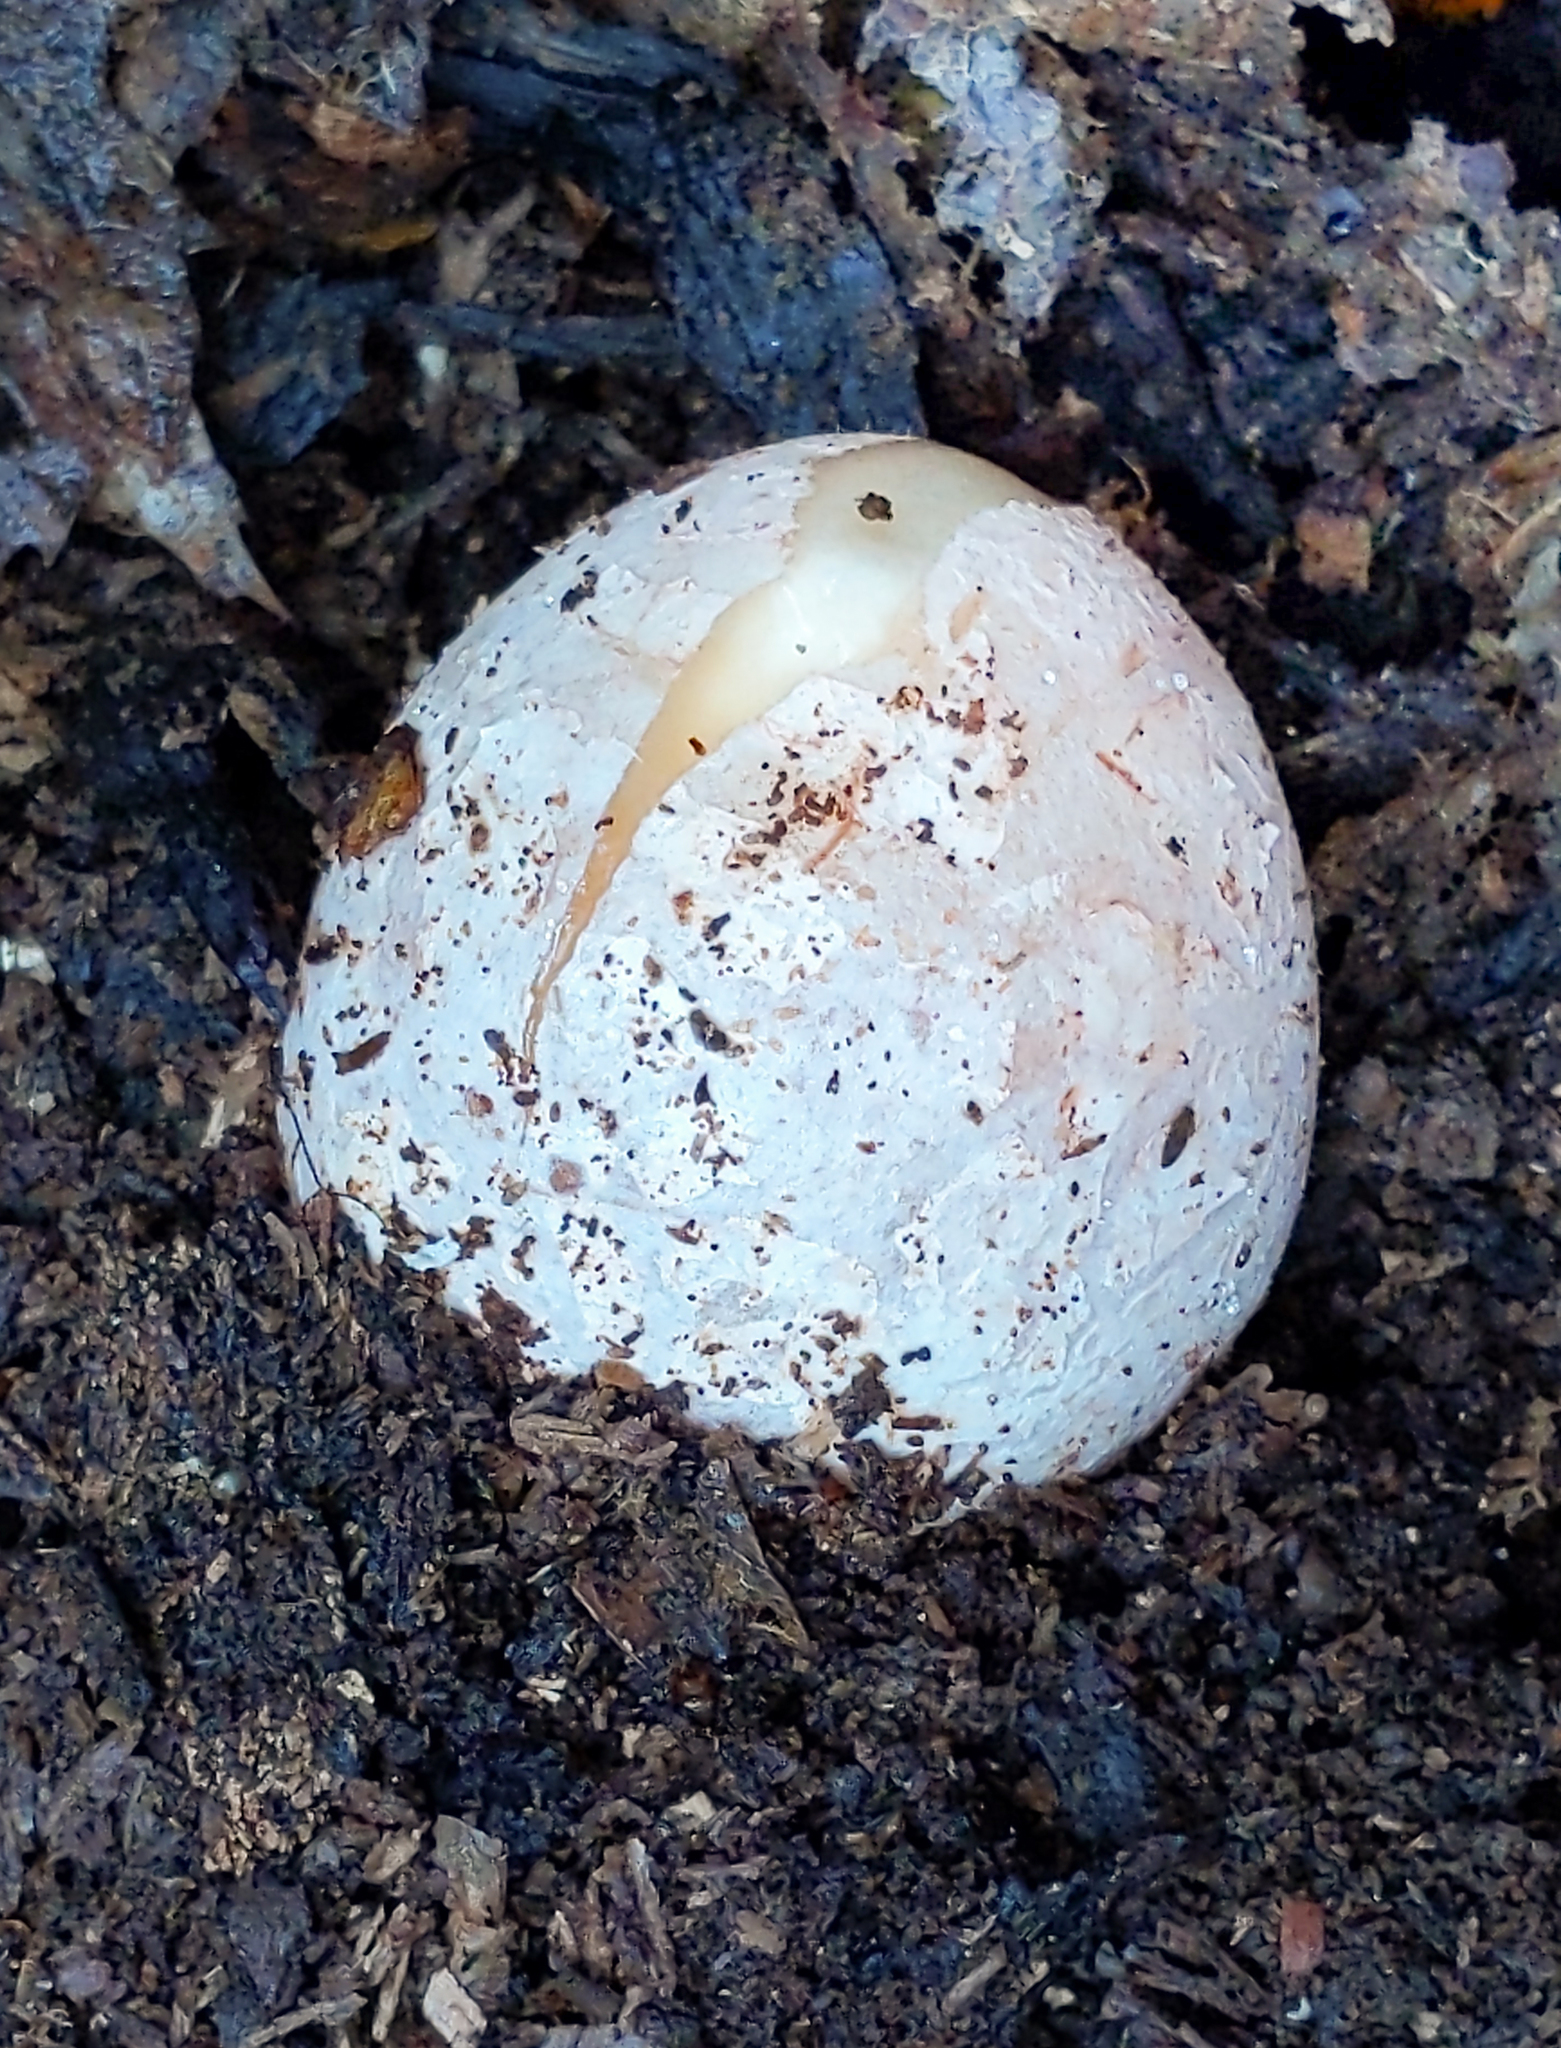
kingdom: Fungi
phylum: Basidiomycota
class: Agaricomycetes
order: Phallales
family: Phallaceae
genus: Phallus
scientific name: Phallus ravenelii
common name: Ravenel's stinkhorn
